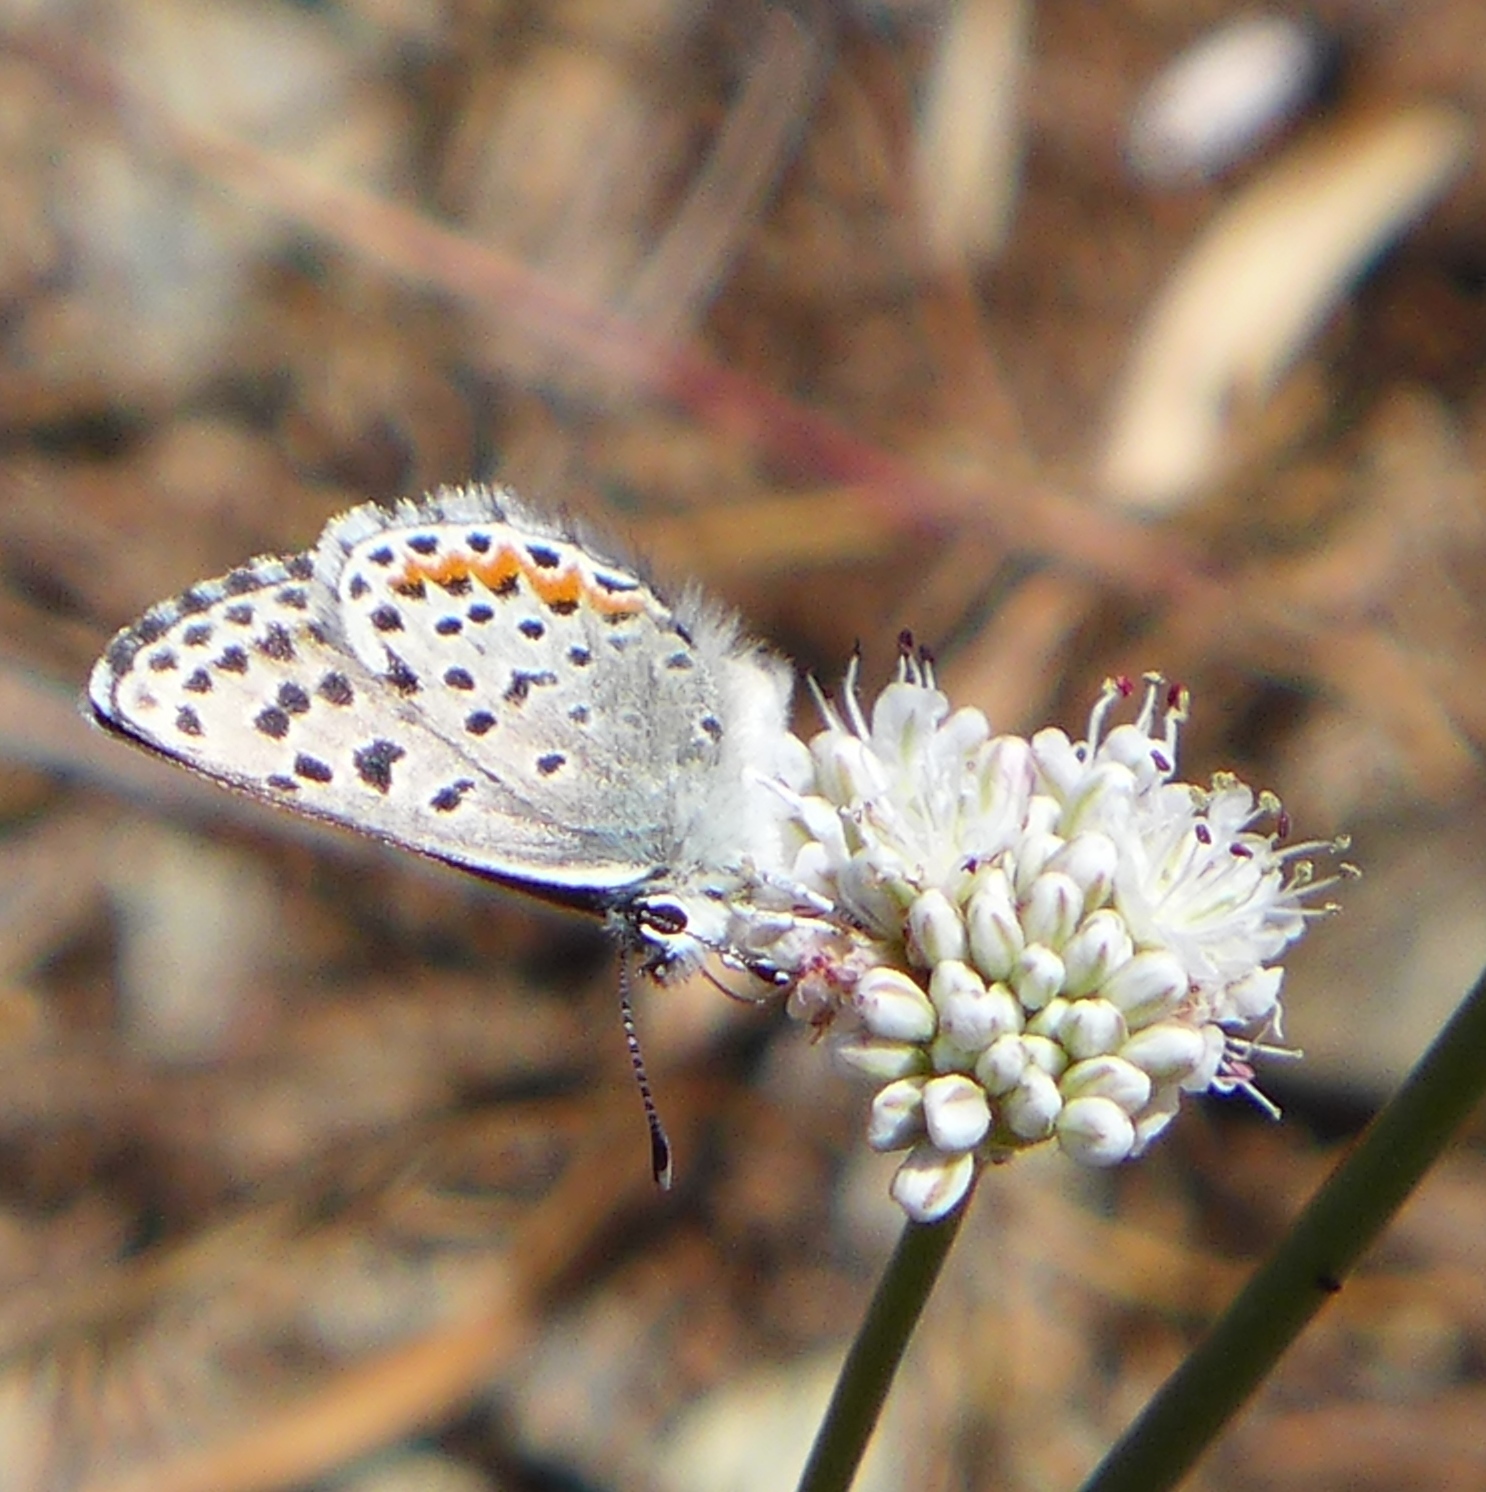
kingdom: Animalia
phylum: Arthropoda
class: Insecta
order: Lepidoptera
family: Lycaenidae
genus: Euphilotes
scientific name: Euphilotes enoptes
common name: Dotted blue
